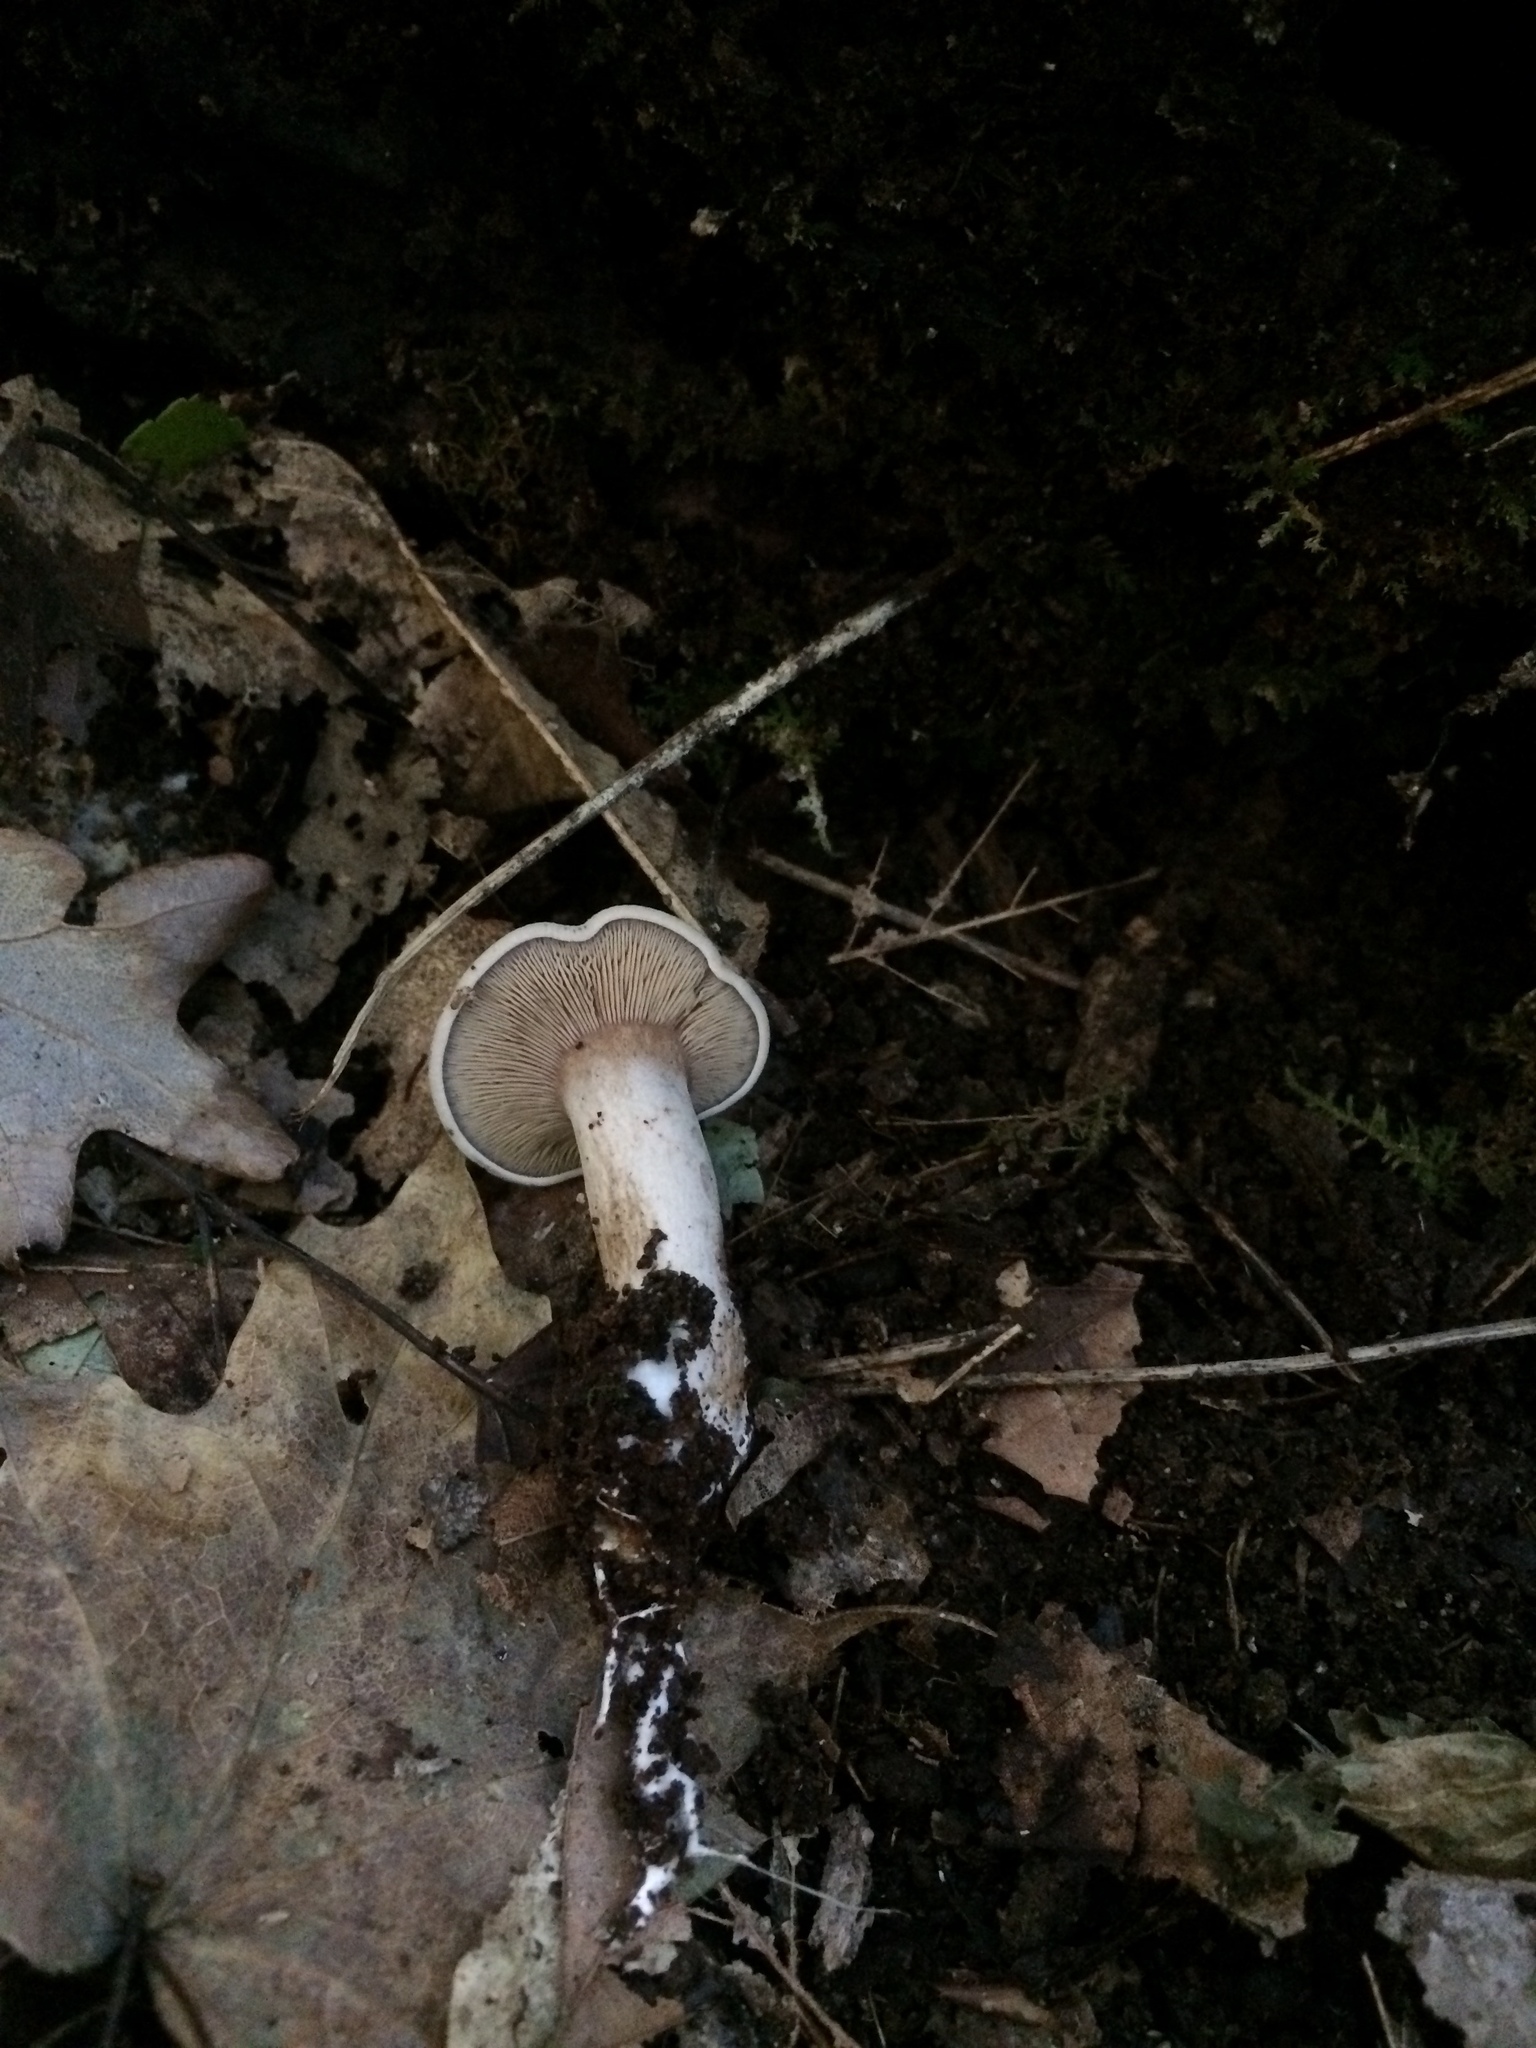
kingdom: Fungi
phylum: Basidiomycota
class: Agaricomycetes
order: Agaricales
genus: Hertzogia
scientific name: Hertzogia martiorum
